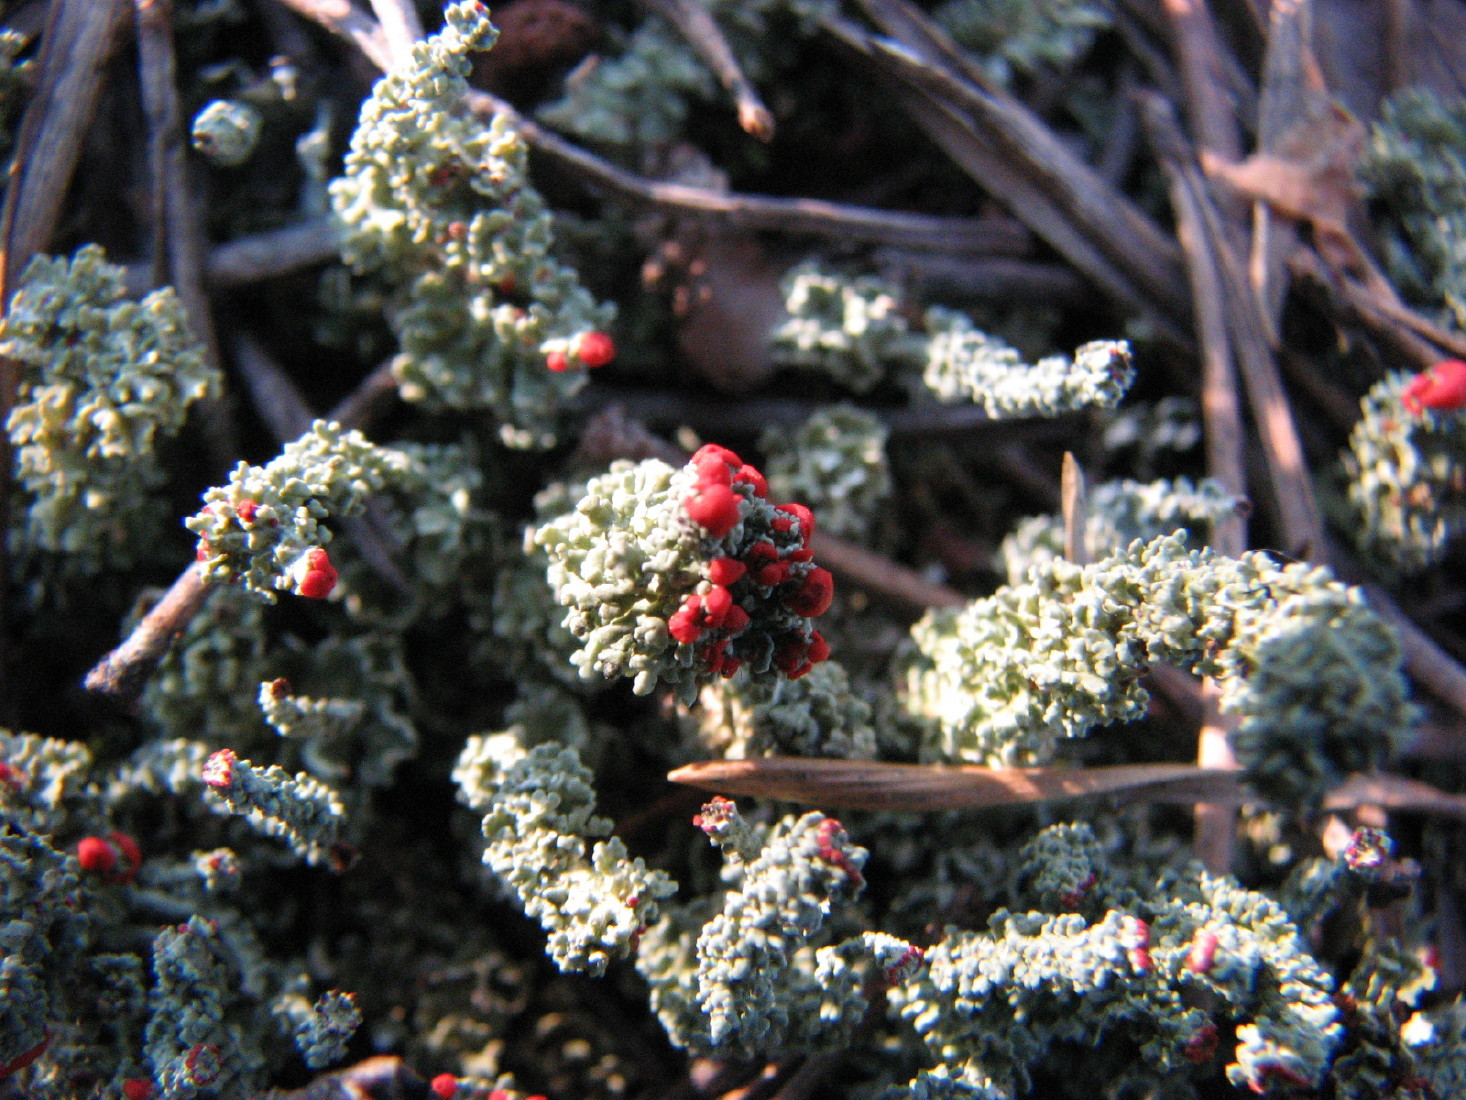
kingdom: Fungi
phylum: Ascomycota
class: Lecanoromycetes
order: Lecanorales
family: Cladoniaceae
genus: Cladonia
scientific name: Cladonia
